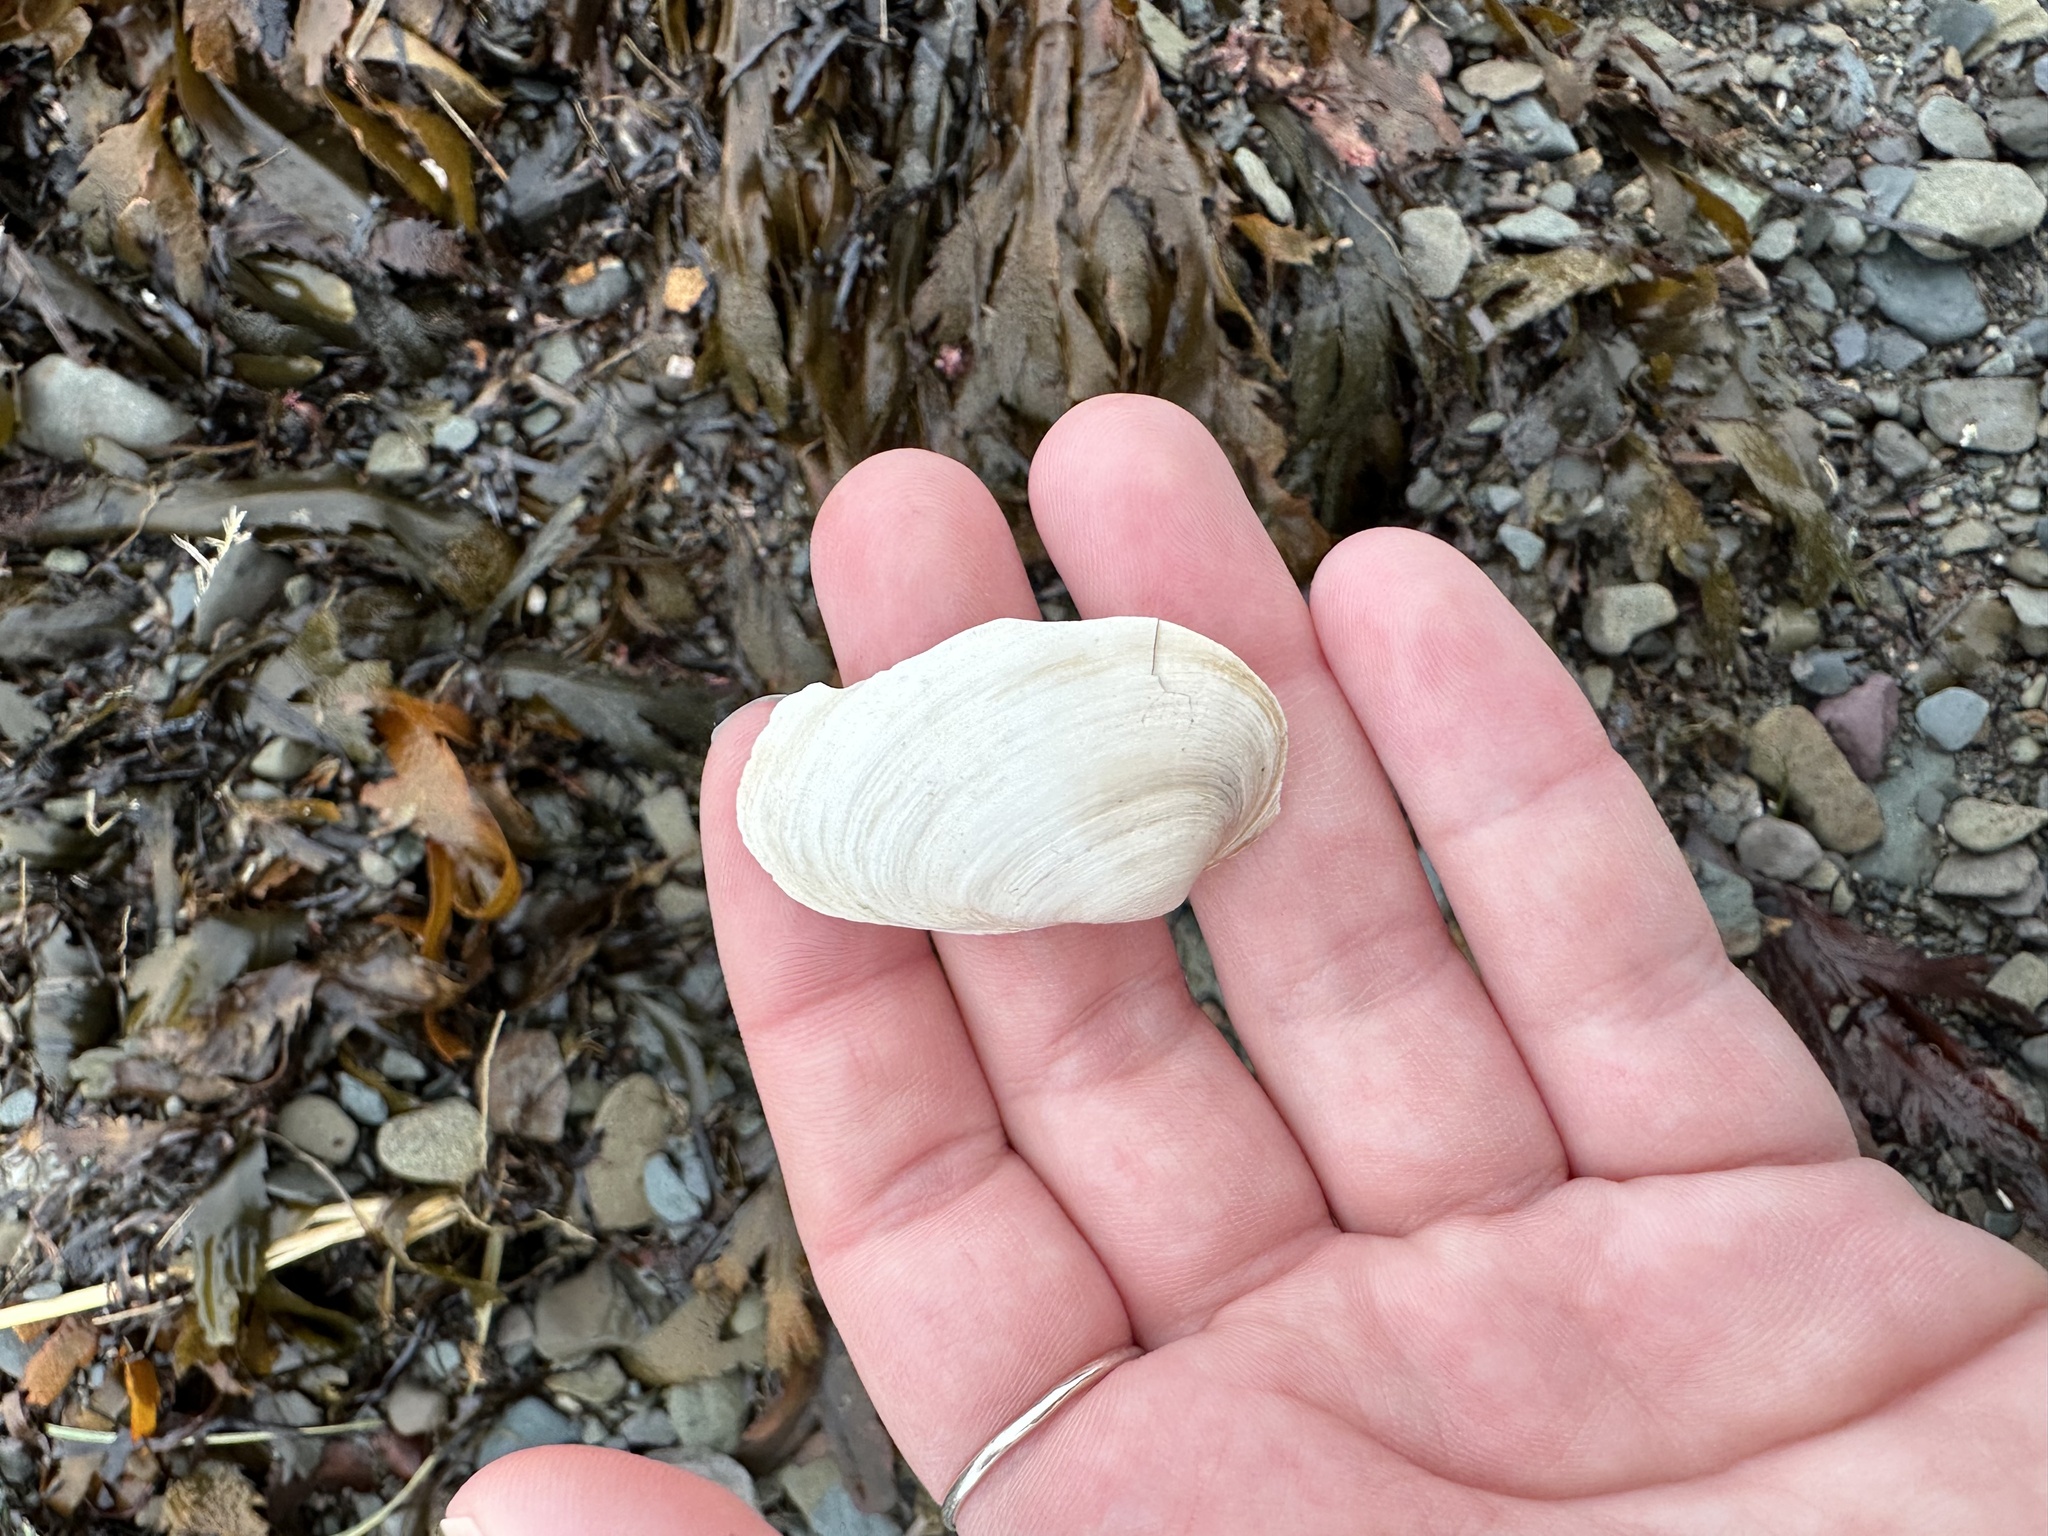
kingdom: Animalia
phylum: Mollusca
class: Bivalvia
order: Myida
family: Myidae
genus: Mya
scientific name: Mya arenaria
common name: Soft-shelled clam
